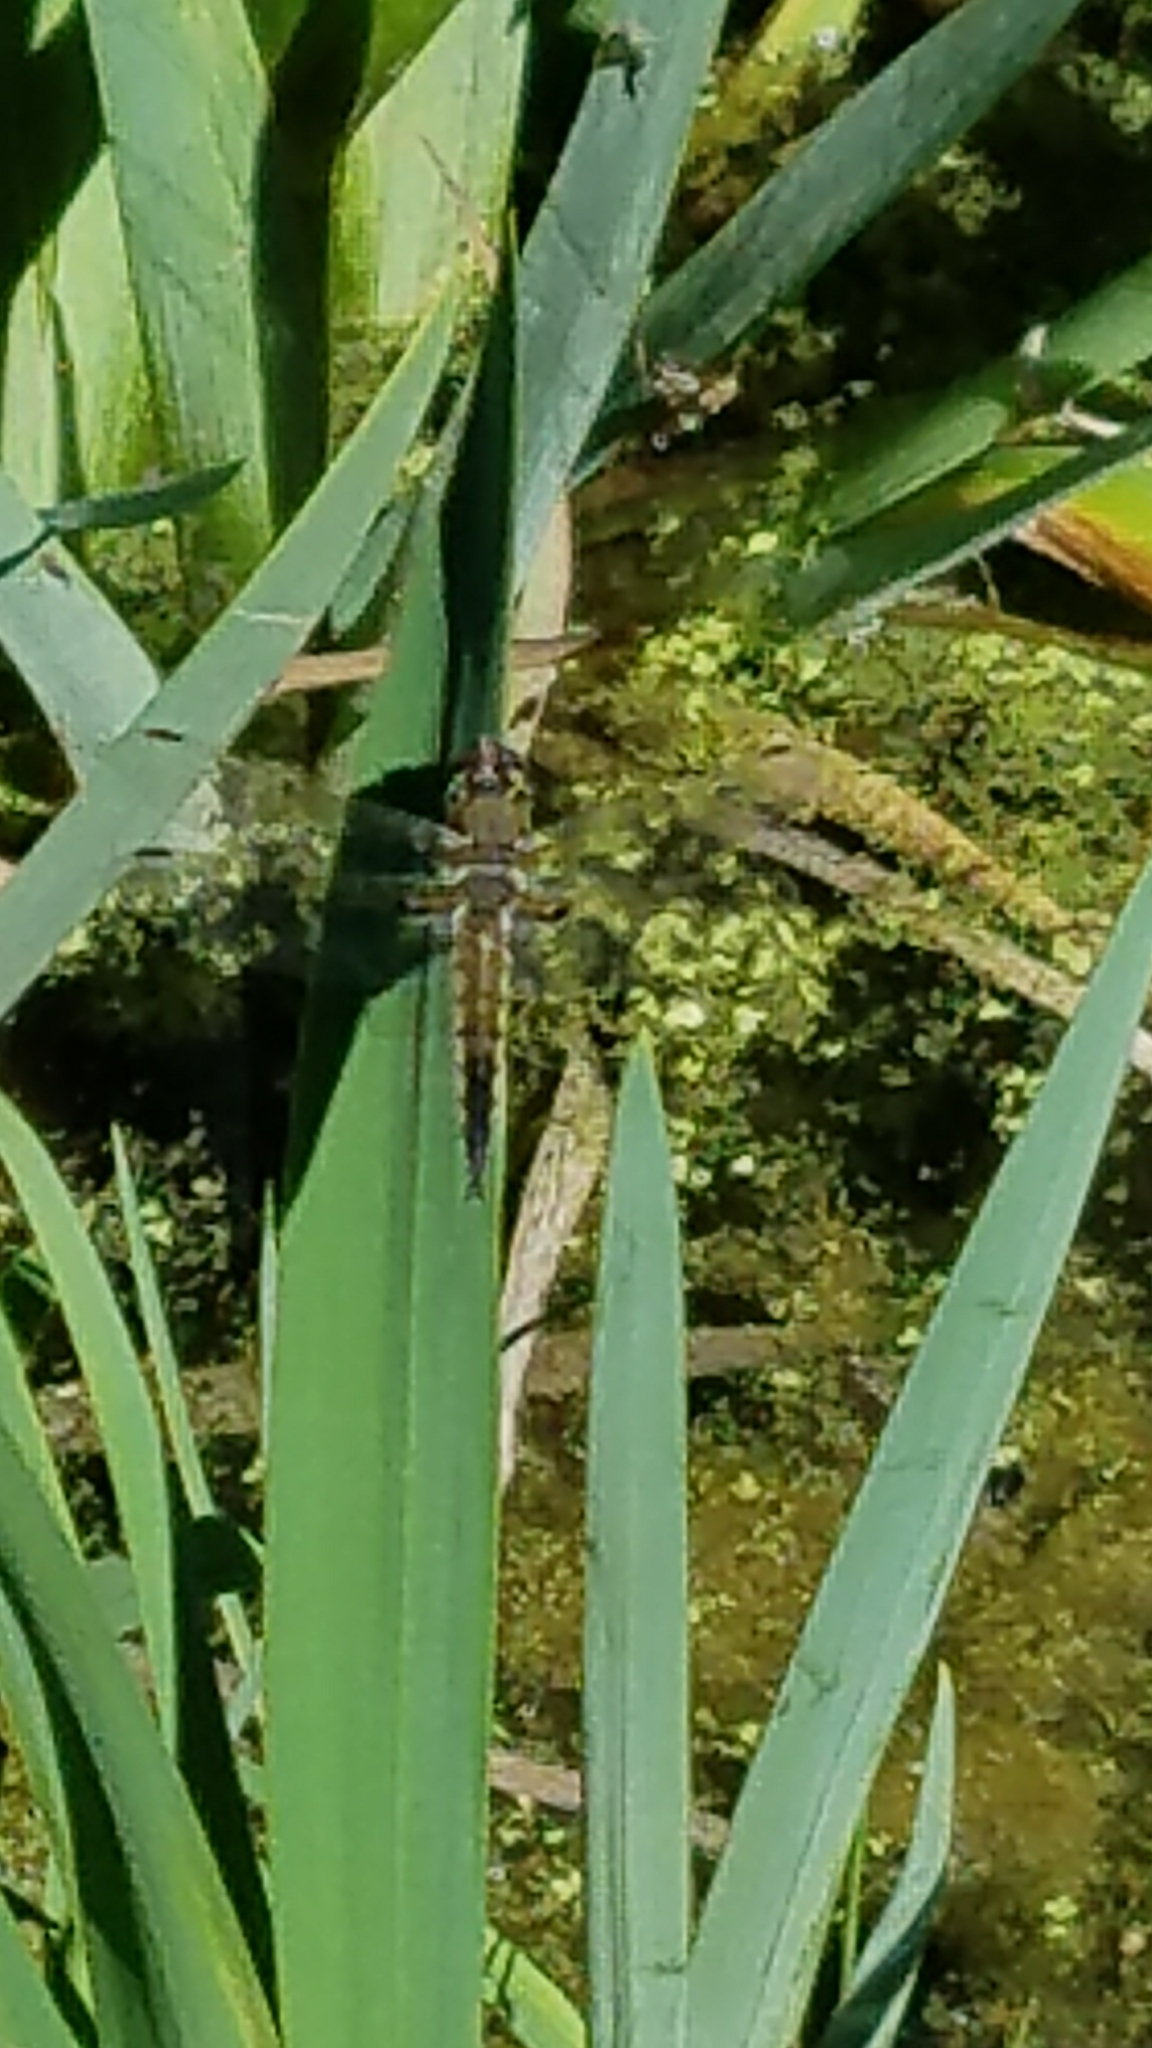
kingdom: Animalia
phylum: Arthropoda
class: Insecta
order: Odonata
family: Libellulidae
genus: Libellula
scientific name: Libellula quadrimaculata
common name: Four-spotted chaser
